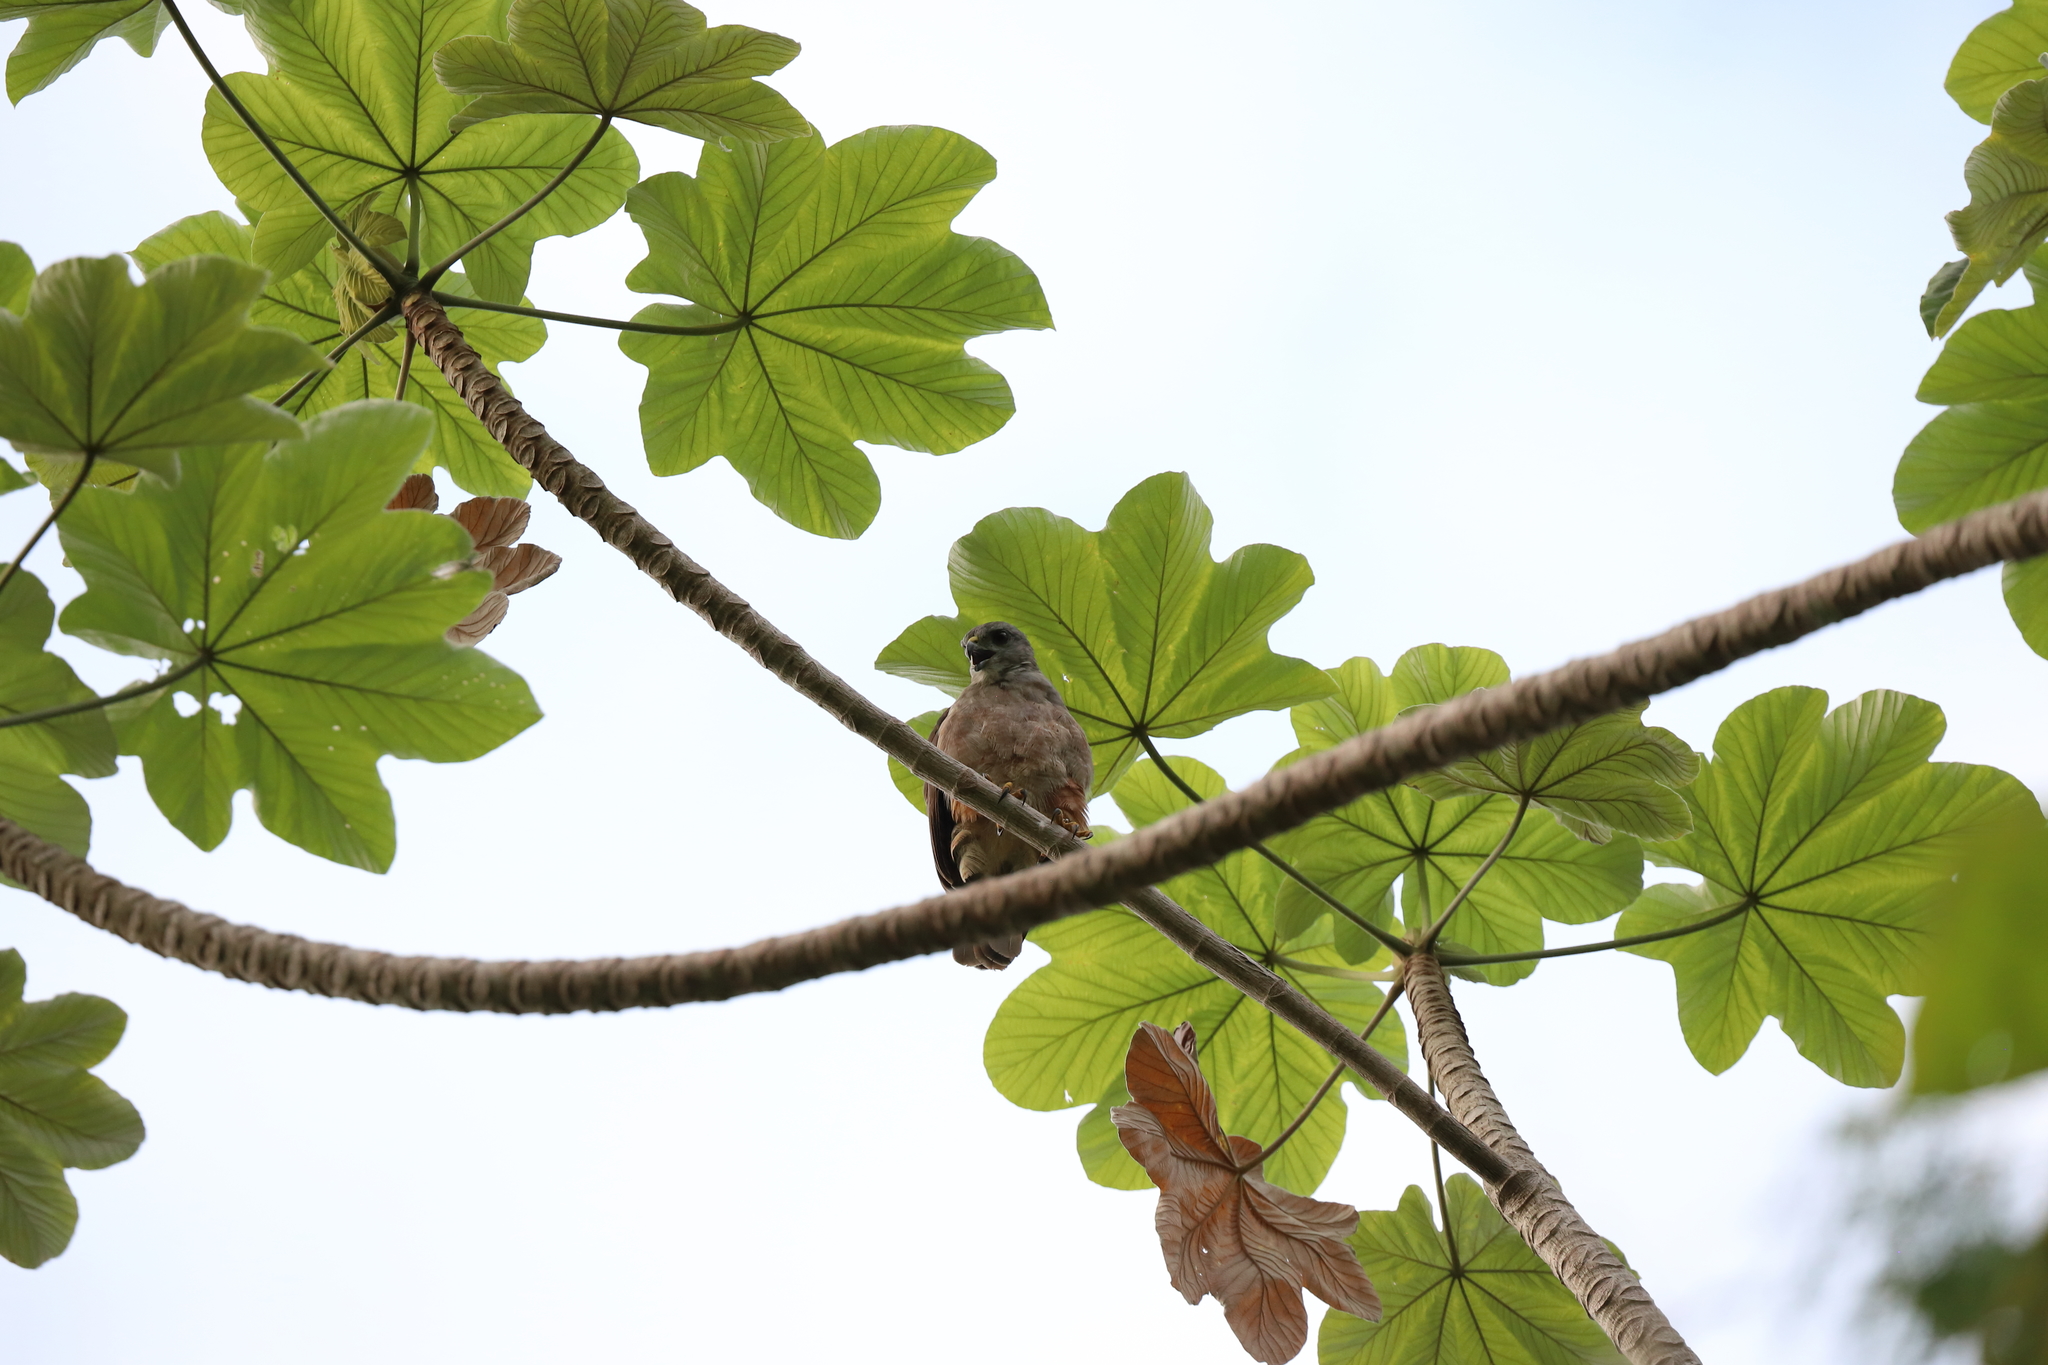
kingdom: Plantae
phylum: Tracheophyta
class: Magnoliopsida
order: Rosales
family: Urticaceae
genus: Cecropia
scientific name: Cecropia schreberiana
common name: Trumpet tree
